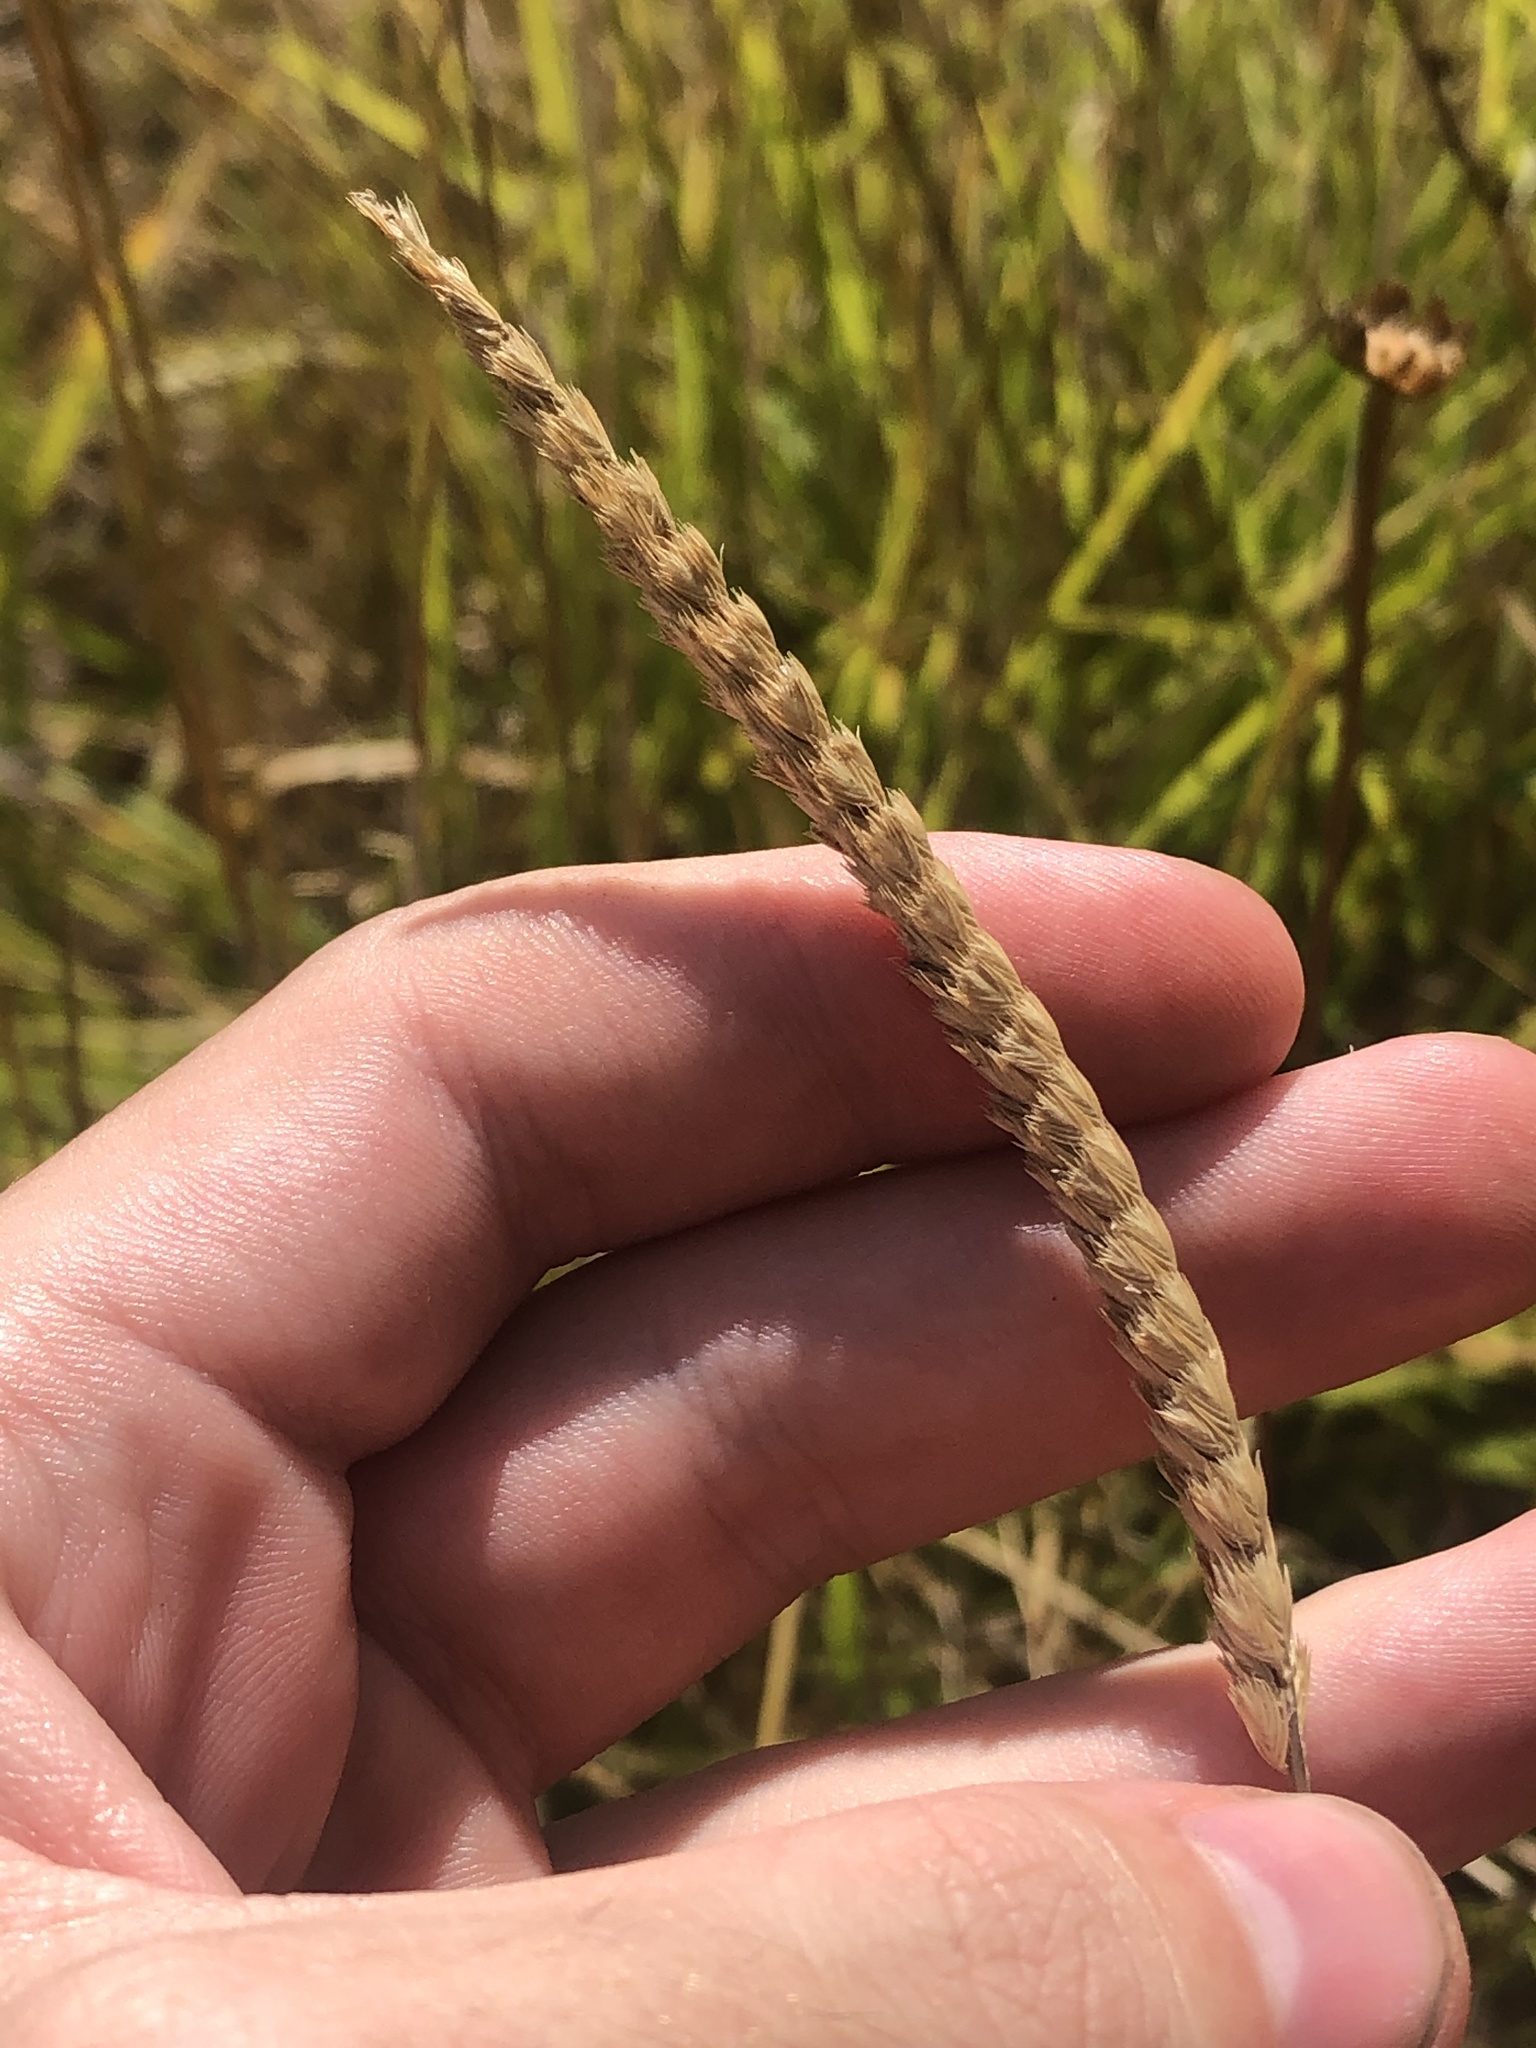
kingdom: Plantae
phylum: Tracheophyta
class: Liliopsida
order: Poales
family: Poaceae
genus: Cynosurus
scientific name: Cynosurus cristatus
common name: Crested dog's-tail
